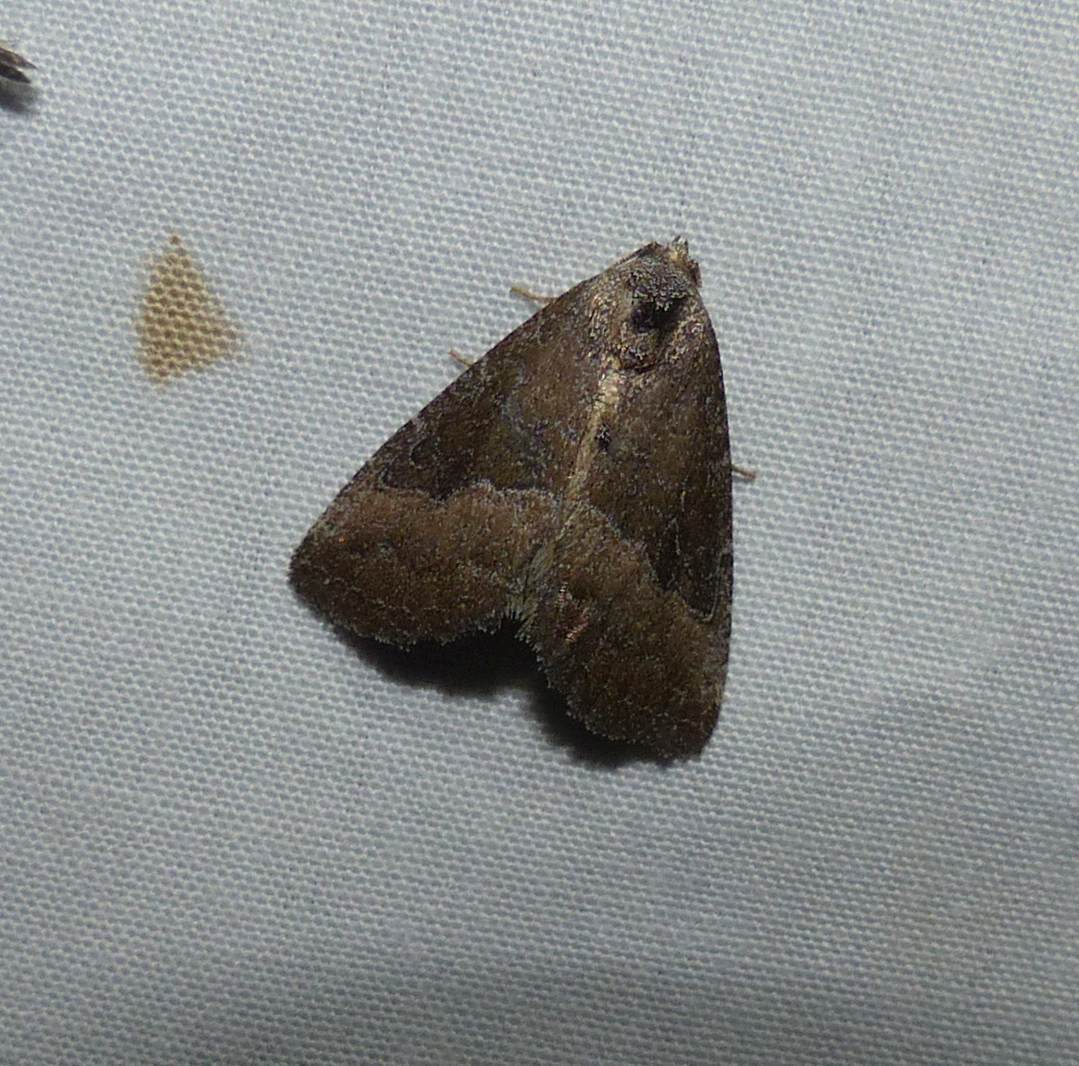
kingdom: Animalia
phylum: Arthropoda
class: Insecta
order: Lepidoptera
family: Noctuidae
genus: Ogdoconta
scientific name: Ogdoconta cinereola
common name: Common pinkband
